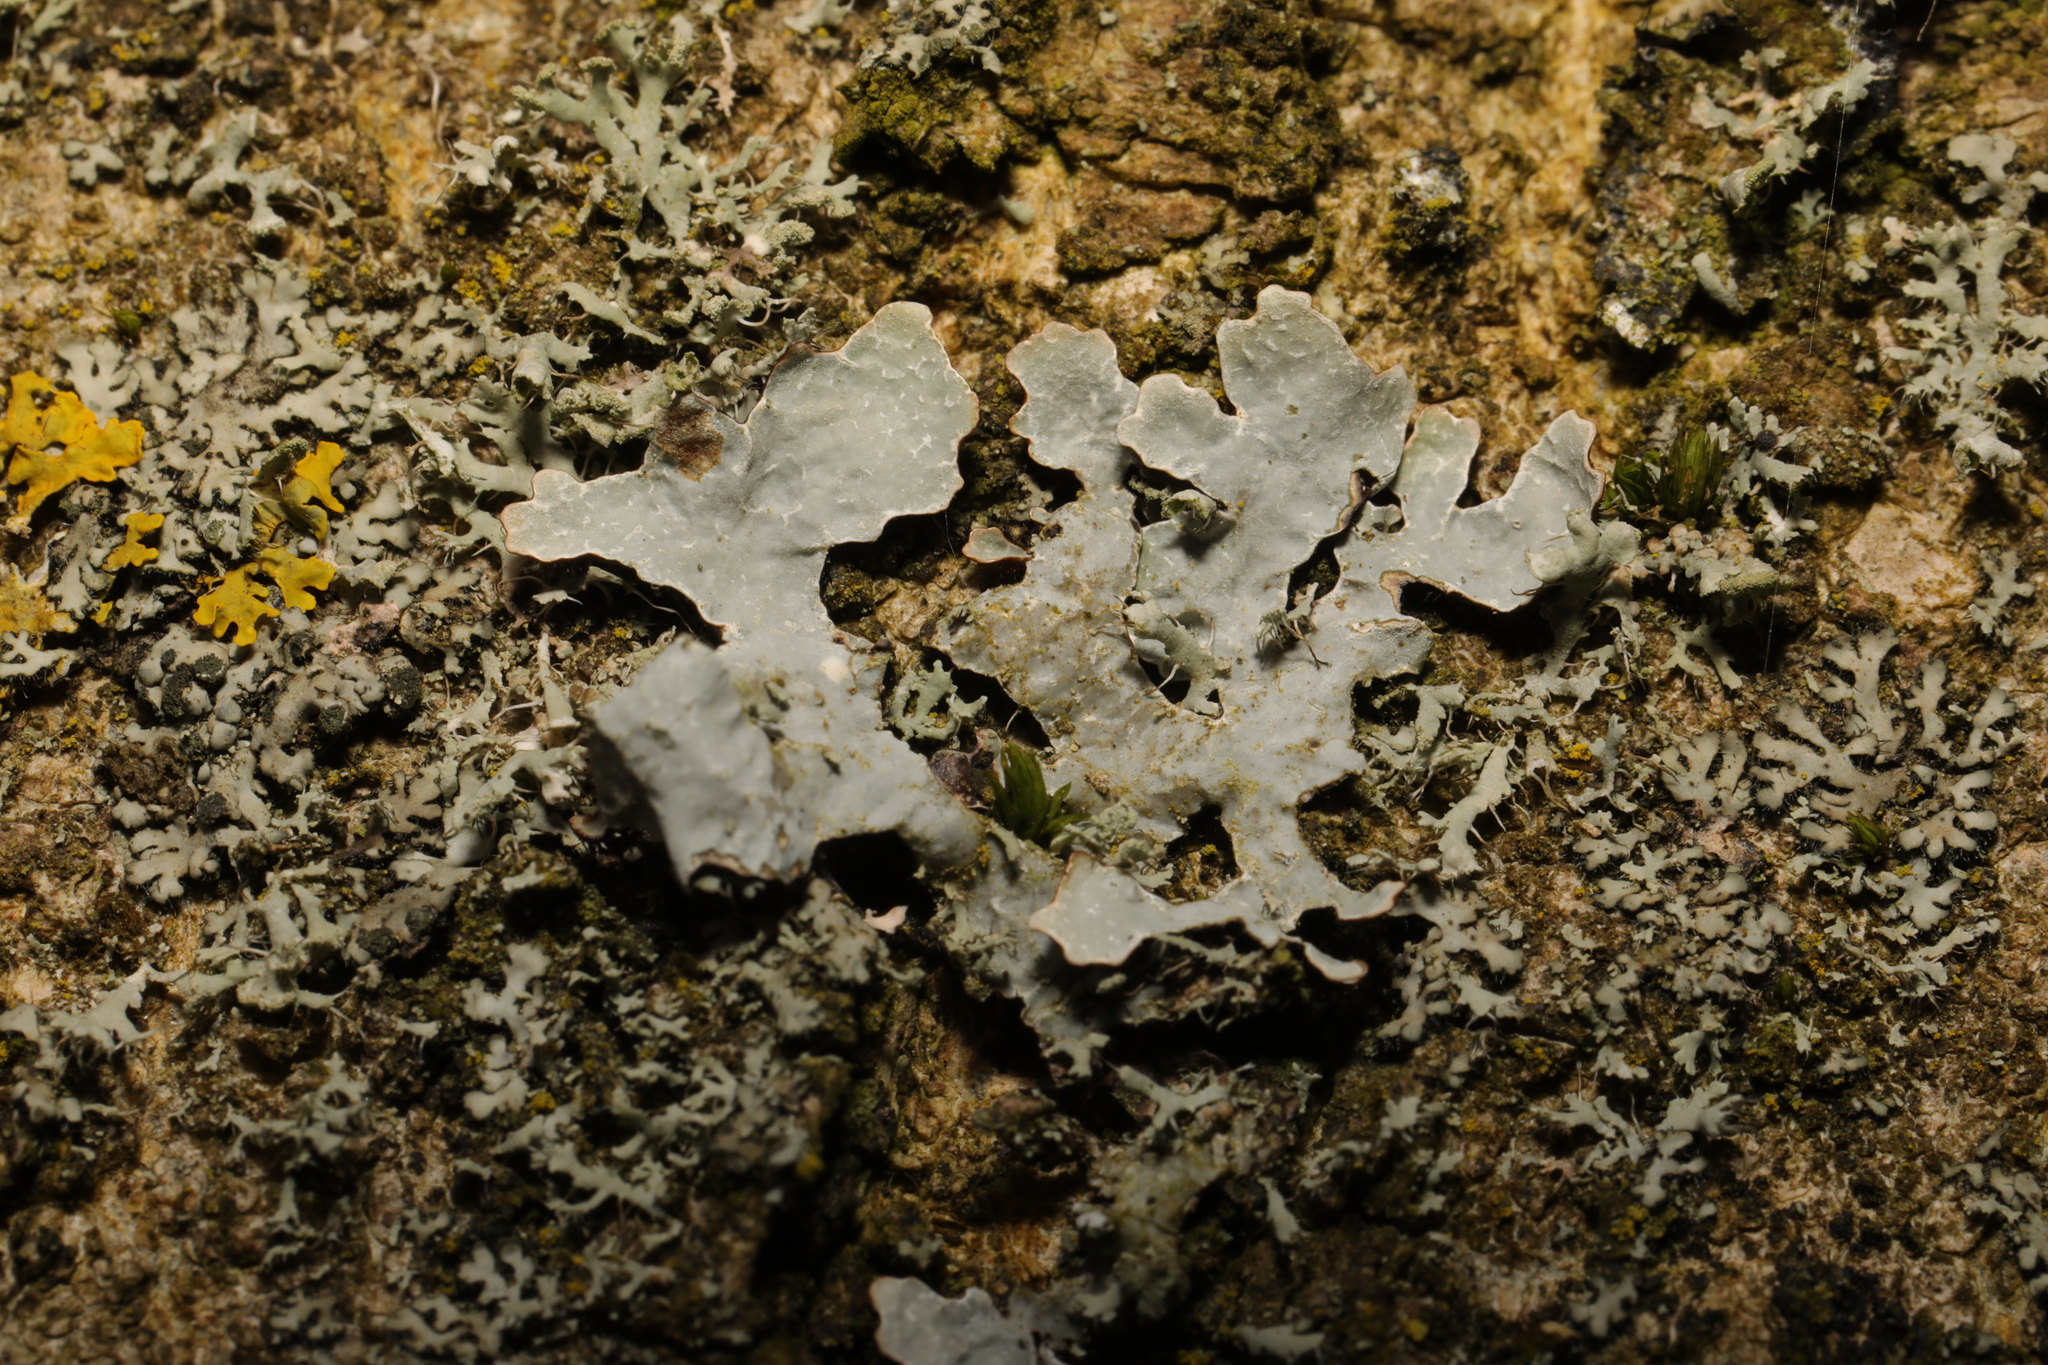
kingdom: Fungi
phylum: Ascomycota
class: Lecanoromycetes
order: Lecanorales
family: Parmeliaceae
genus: Parmelia
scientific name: Parmelia sulcata
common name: Netted shield lichen
